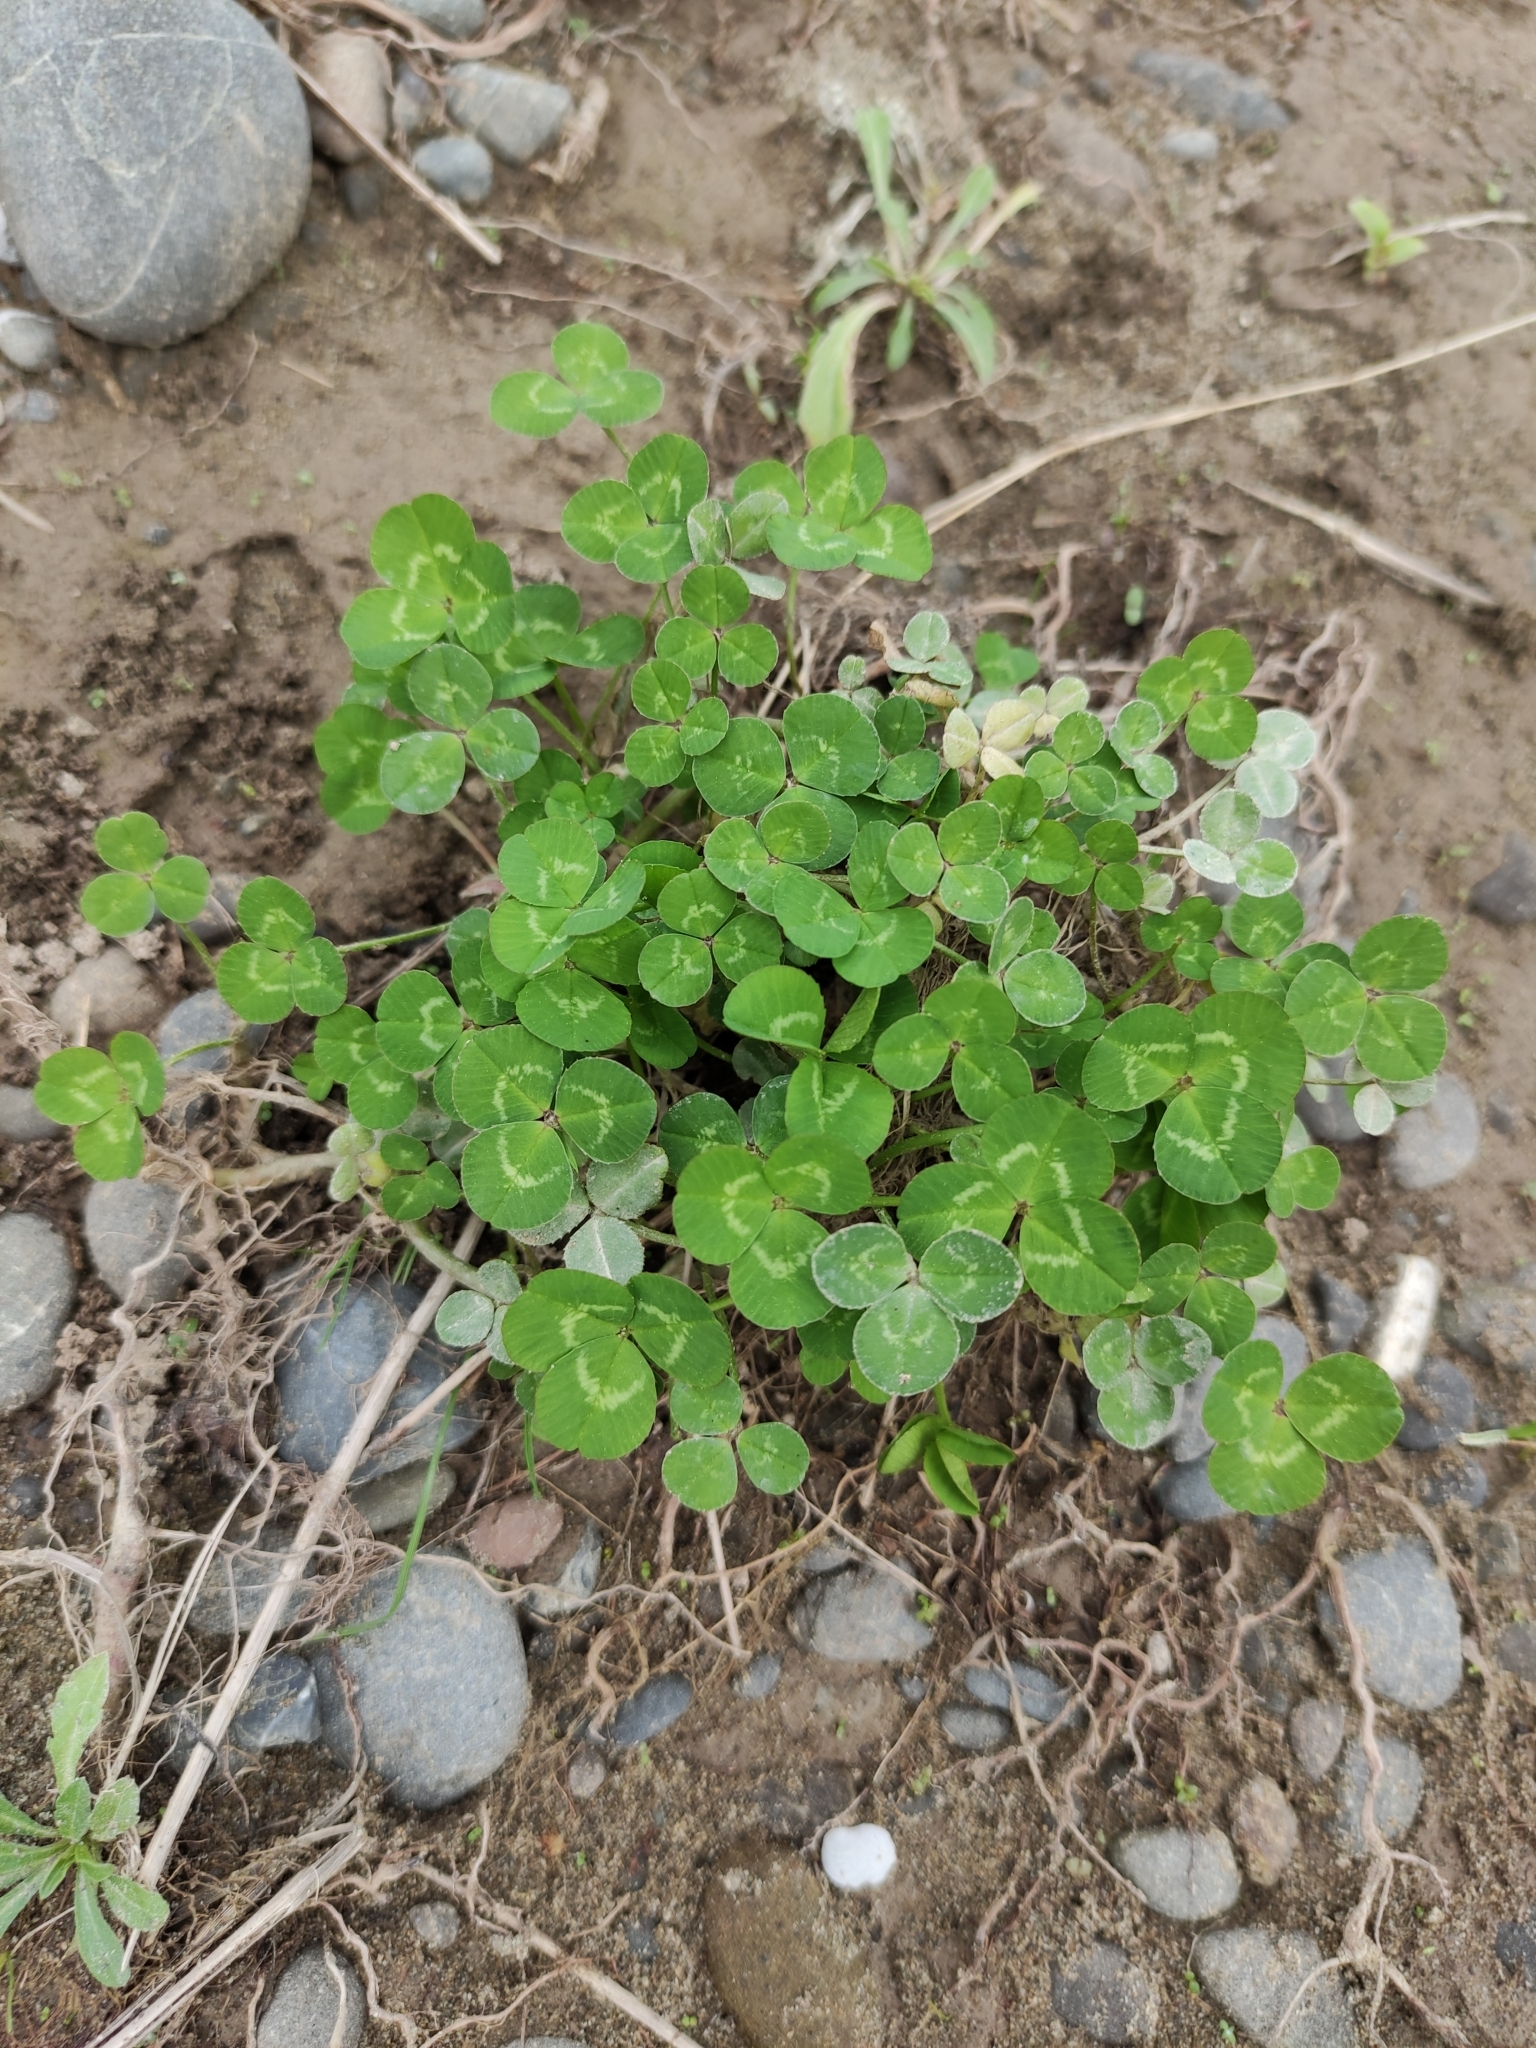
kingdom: Plantae
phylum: Tracheophyta
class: Magnoliopsida
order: Fabales
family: Fabaceae
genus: Trifolium
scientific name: Trifolium repens
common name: White clover
